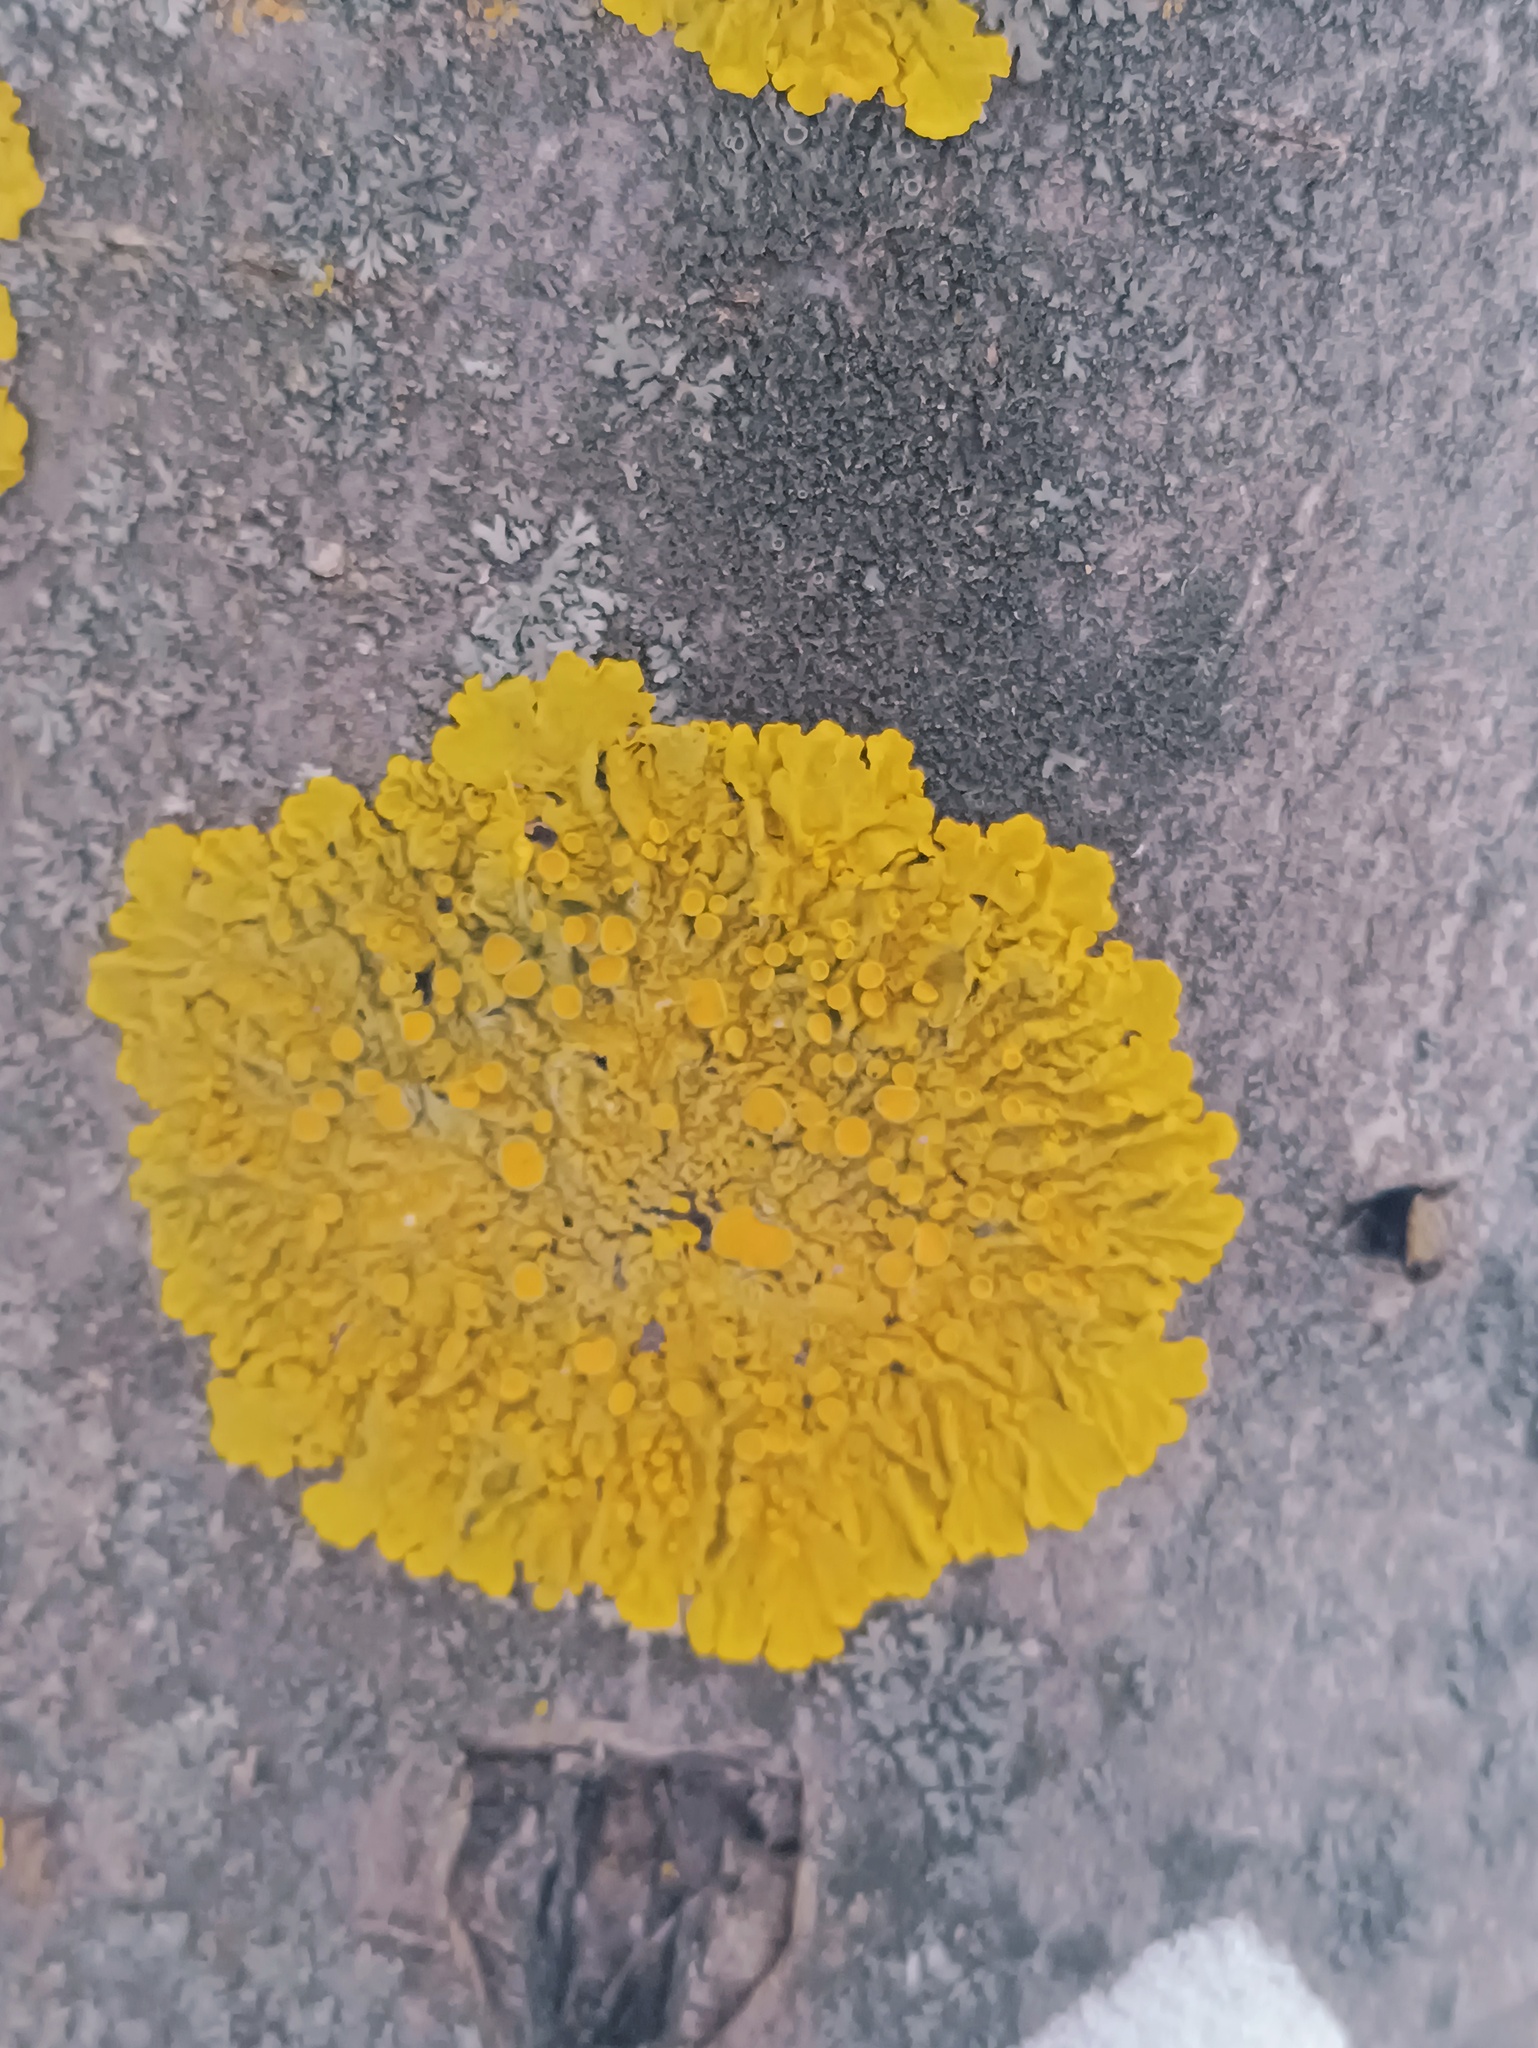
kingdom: Fungi
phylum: Ascomycota
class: Lecanoromycetes
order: Teloschistales
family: Teloschistaceae
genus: Xanthoria
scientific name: Xanthoria parietina
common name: Common orange lichen
